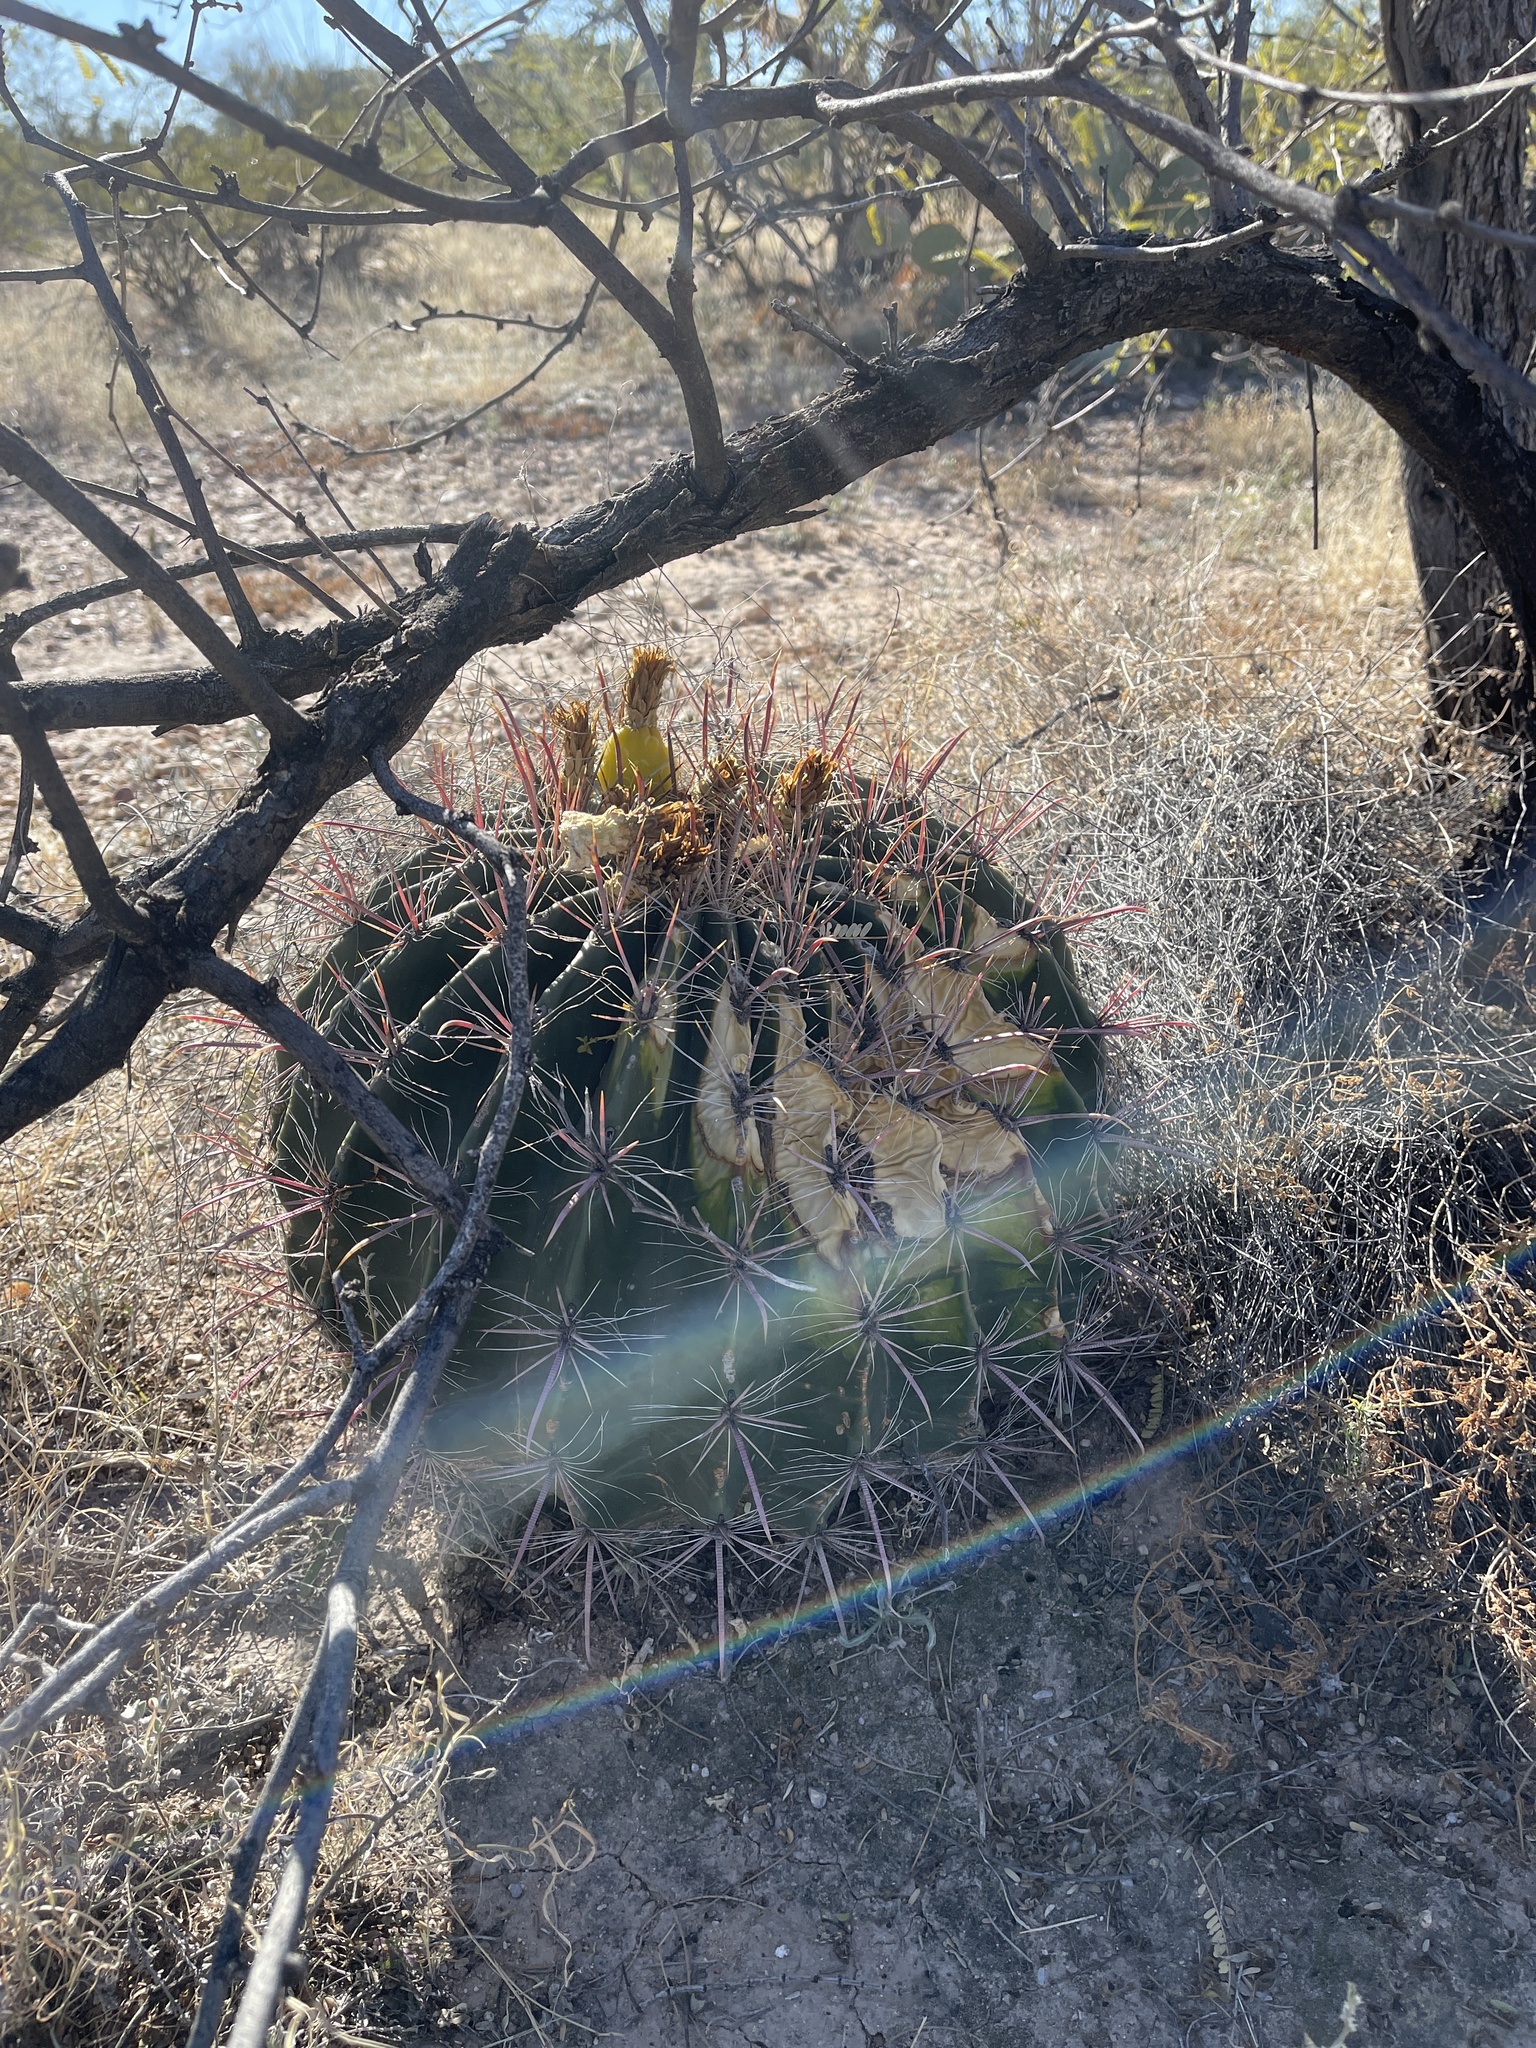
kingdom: Plantae
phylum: Tracheophyta
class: Magnoliopsida
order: Caryophyllales
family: Cactaceae
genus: Ferocactus
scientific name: Ferocactus wislizeni
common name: Candy barrel cactus
